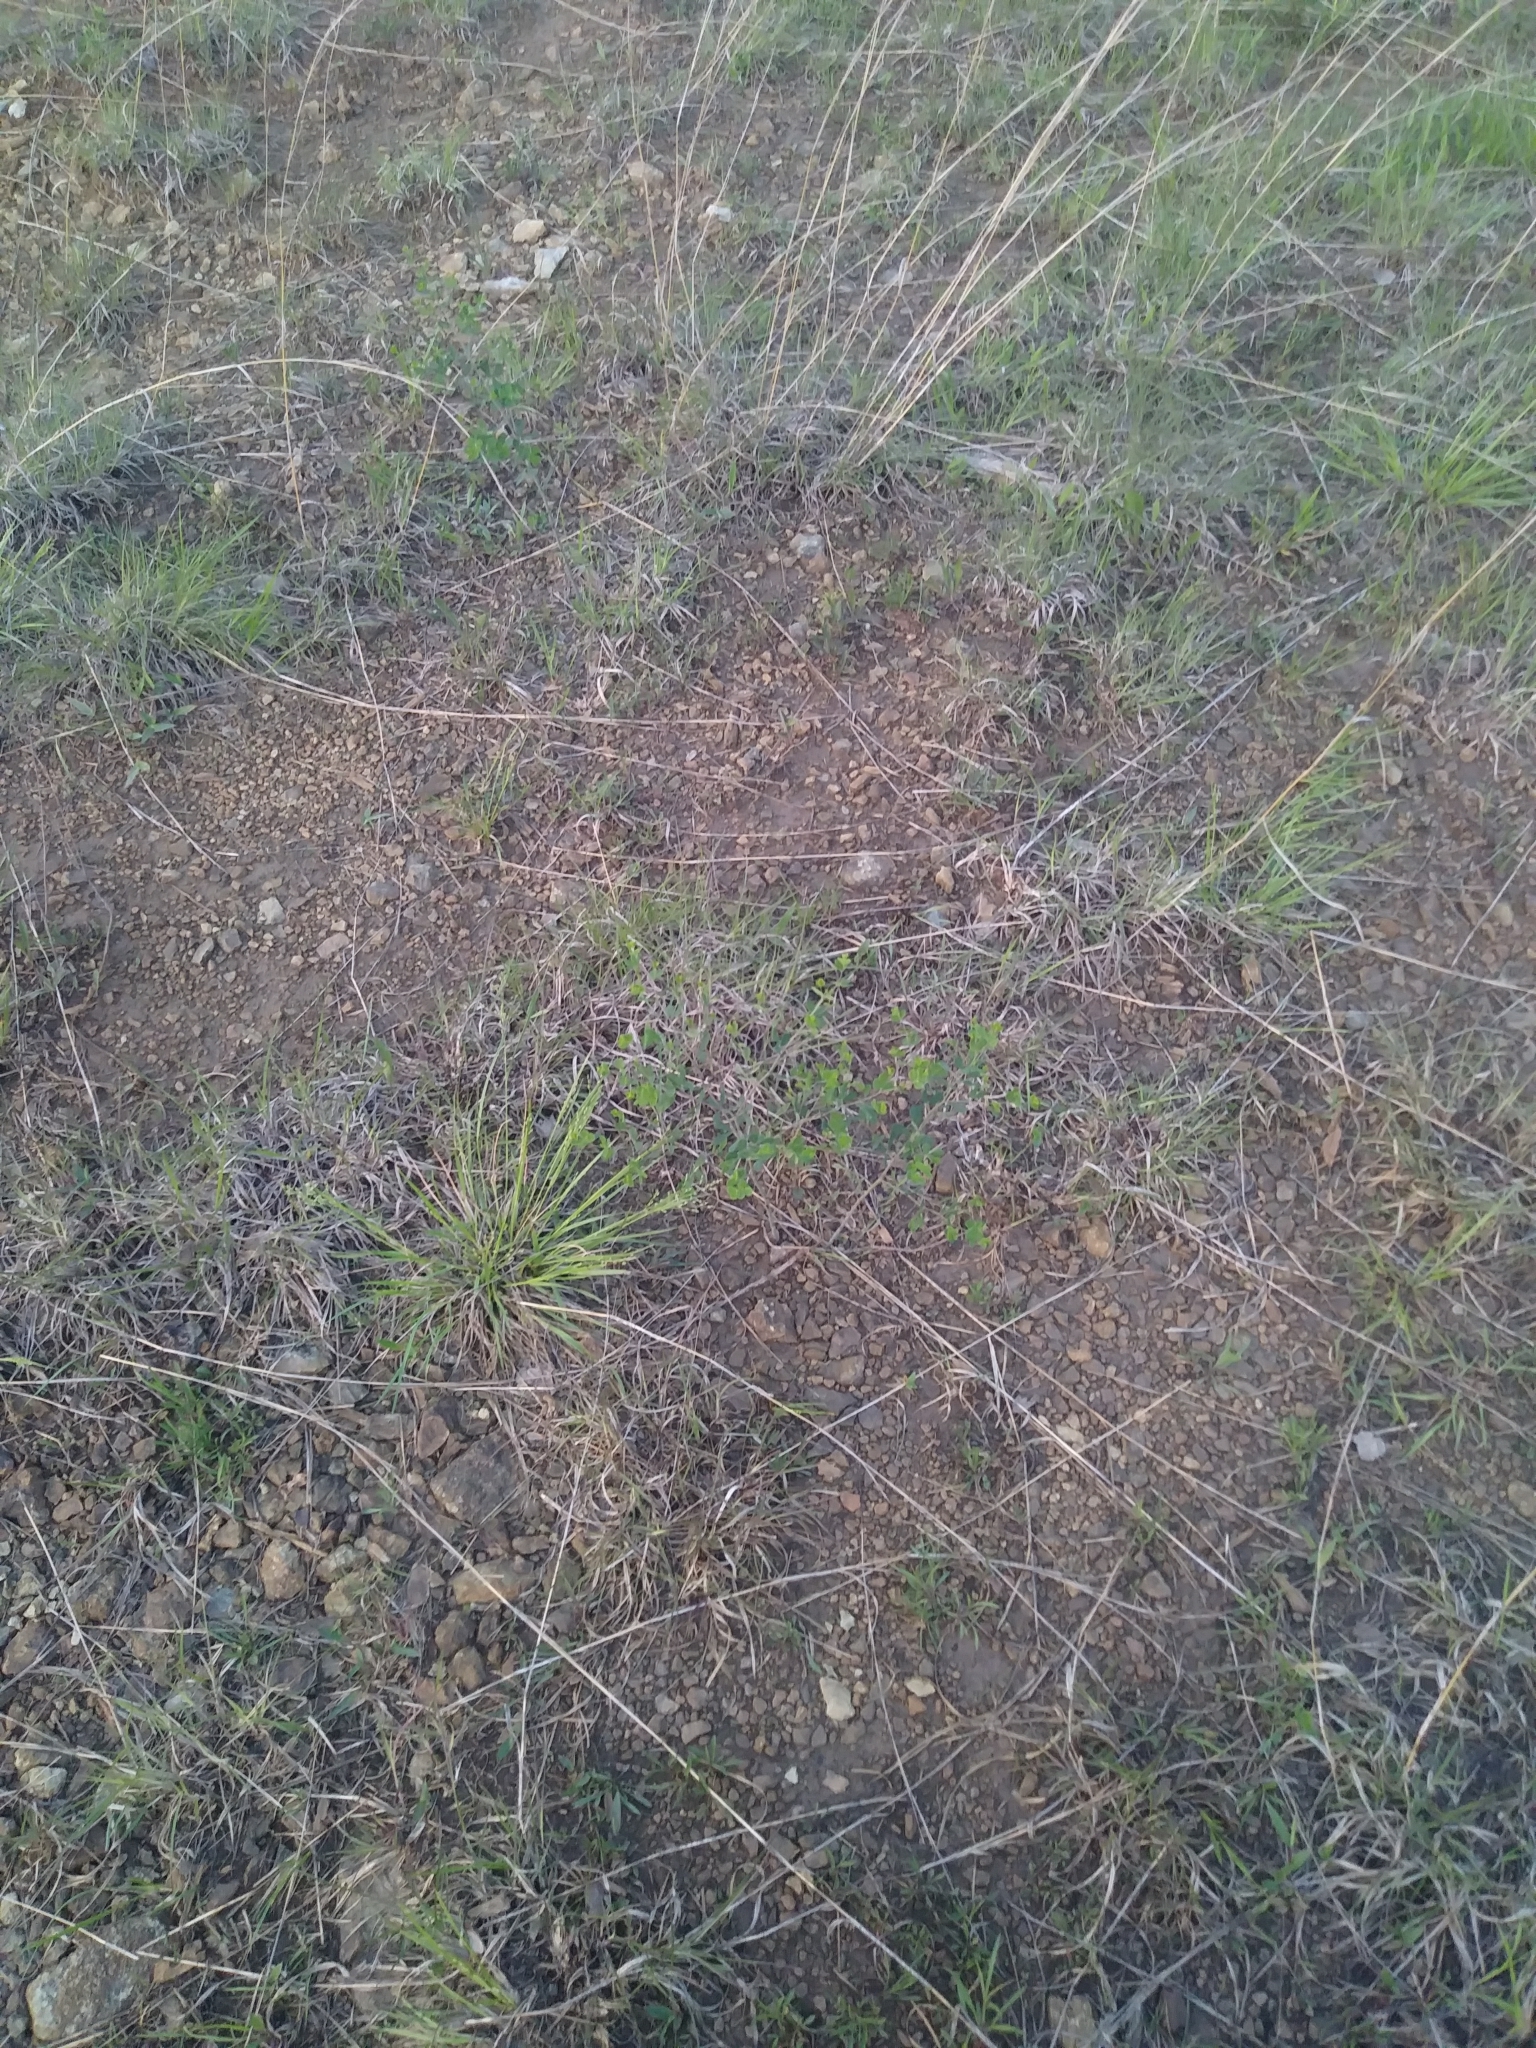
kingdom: Plantae
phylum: Tracheophyta
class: Magnoliopsida
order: Fabales
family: Fabaceae
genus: Baptisia
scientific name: Baptisia tinctoria
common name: Wild indigo
